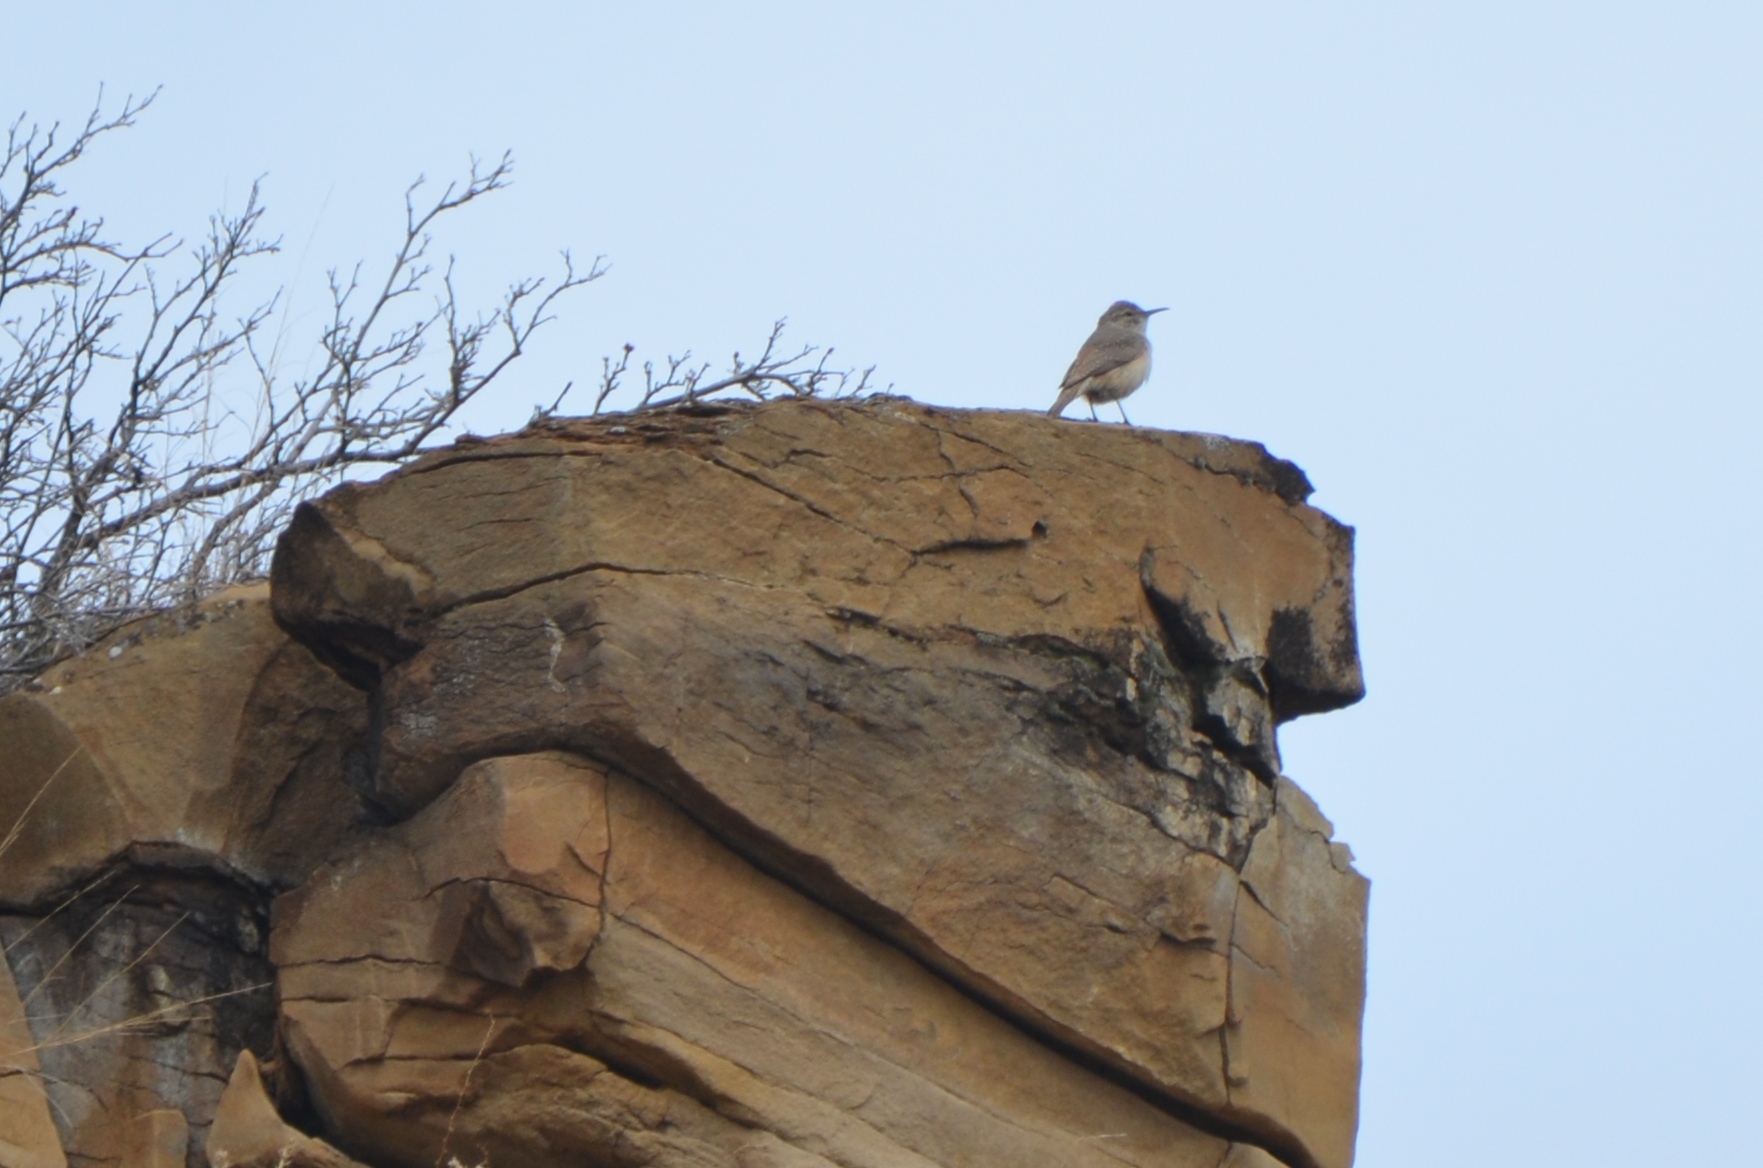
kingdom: Animalia
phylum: Chordata
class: Aves
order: Passeriformes
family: Troglodytidae
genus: Salpinctes
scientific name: Salpinctes obsoletus
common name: Rock wren
